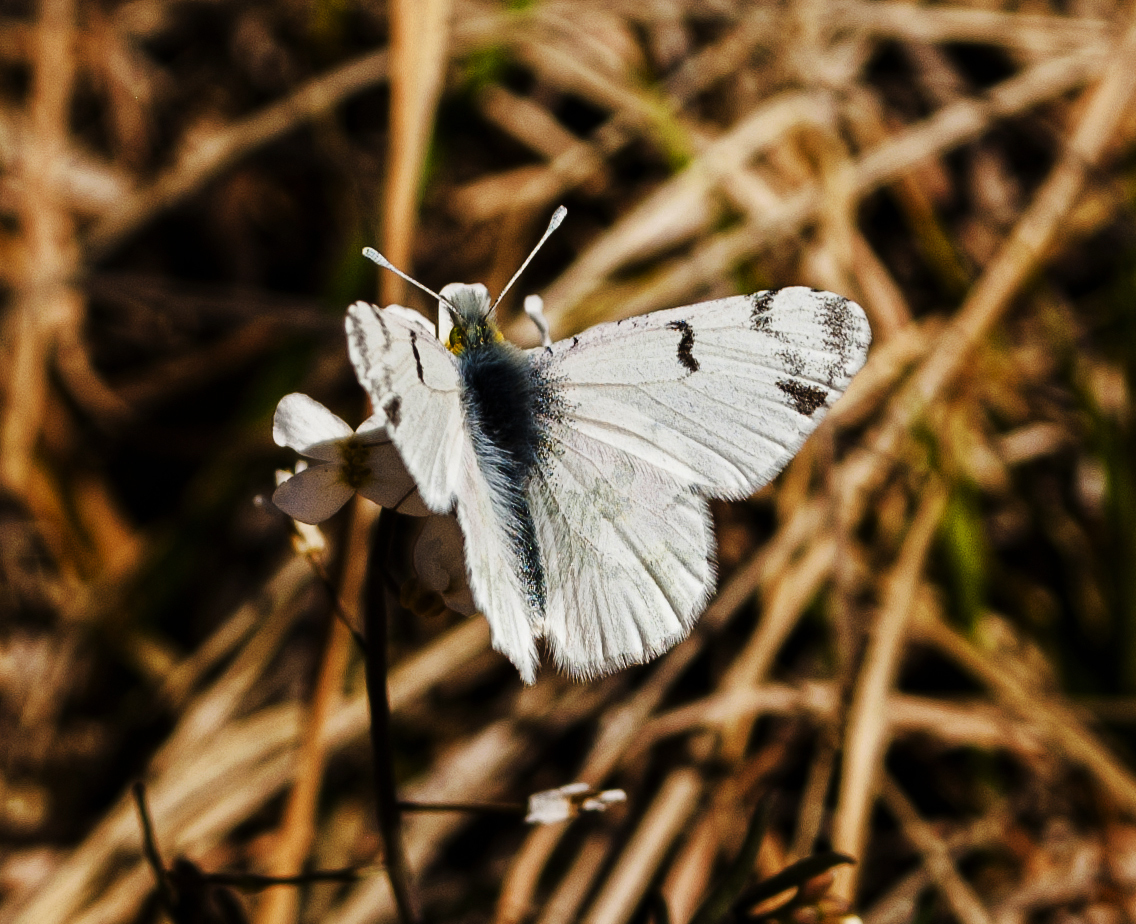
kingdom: Animalia
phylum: Arthropoda
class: Insecta
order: Lepidoptera
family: Pieridae
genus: Euchloe
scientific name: Euchloe olympia
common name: Olympia
